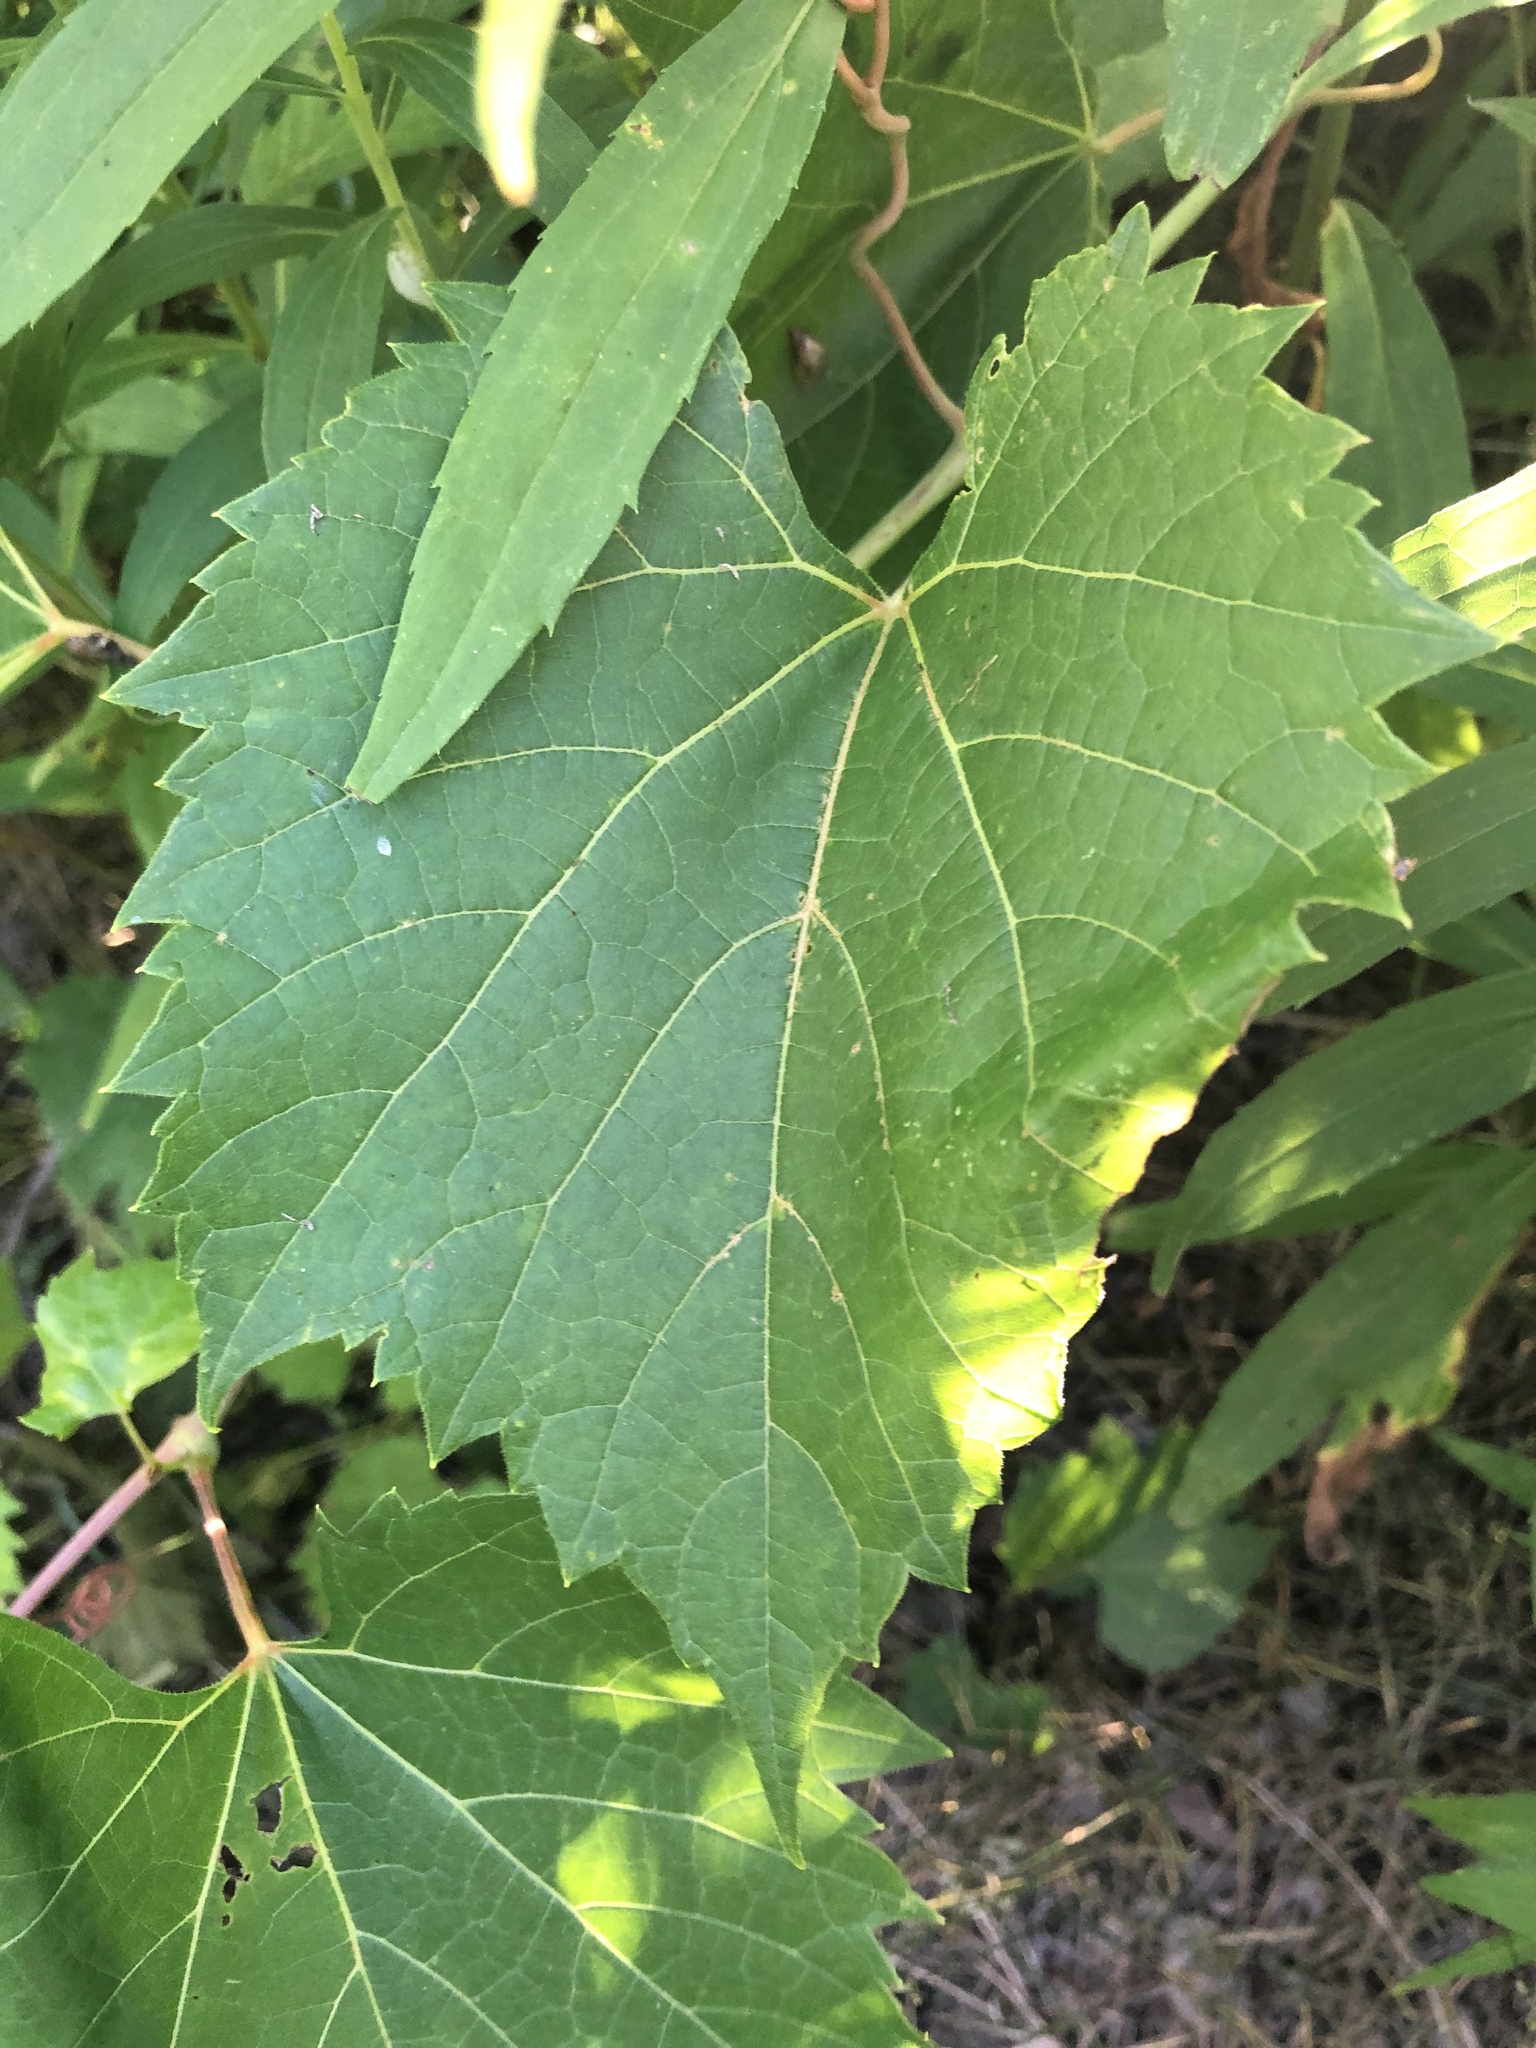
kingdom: Plantae
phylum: Tracheophyta
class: Magnoliopsida
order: Vitales
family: Vitaceae
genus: Vitis
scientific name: Vitis riparia
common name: Frost grape
